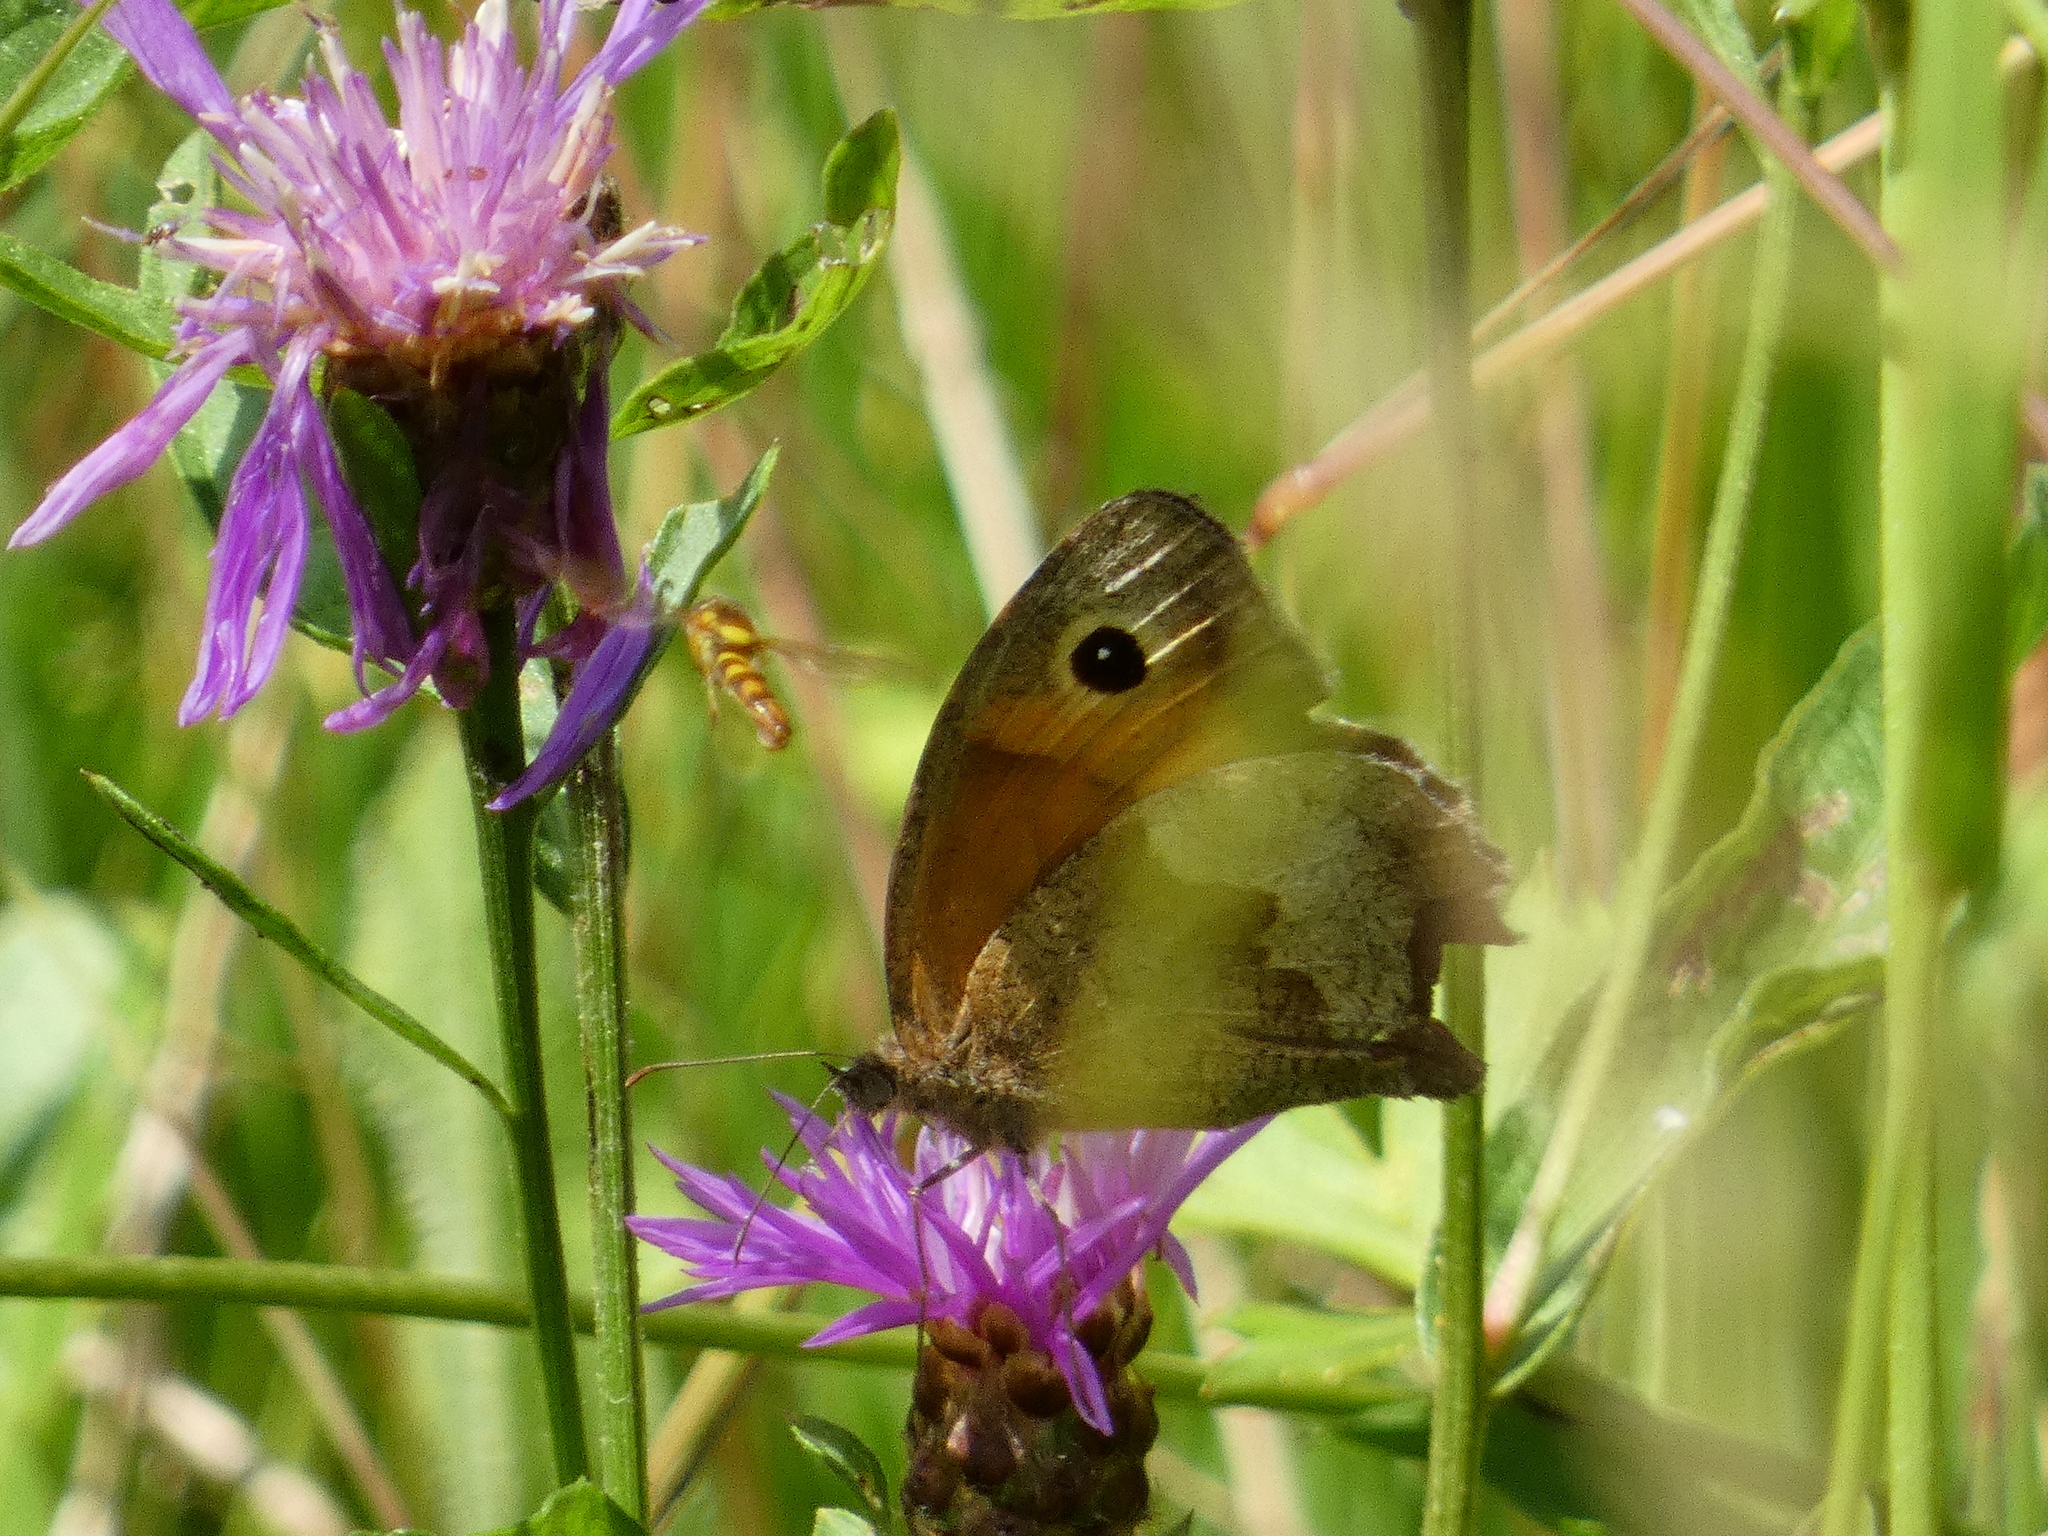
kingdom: Animalia
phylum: Arthropoda
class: Insecta
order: Lepidoptera
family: Nymphalidae
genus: Maniola
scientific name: Maniola jurtina
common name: Meadow brown
